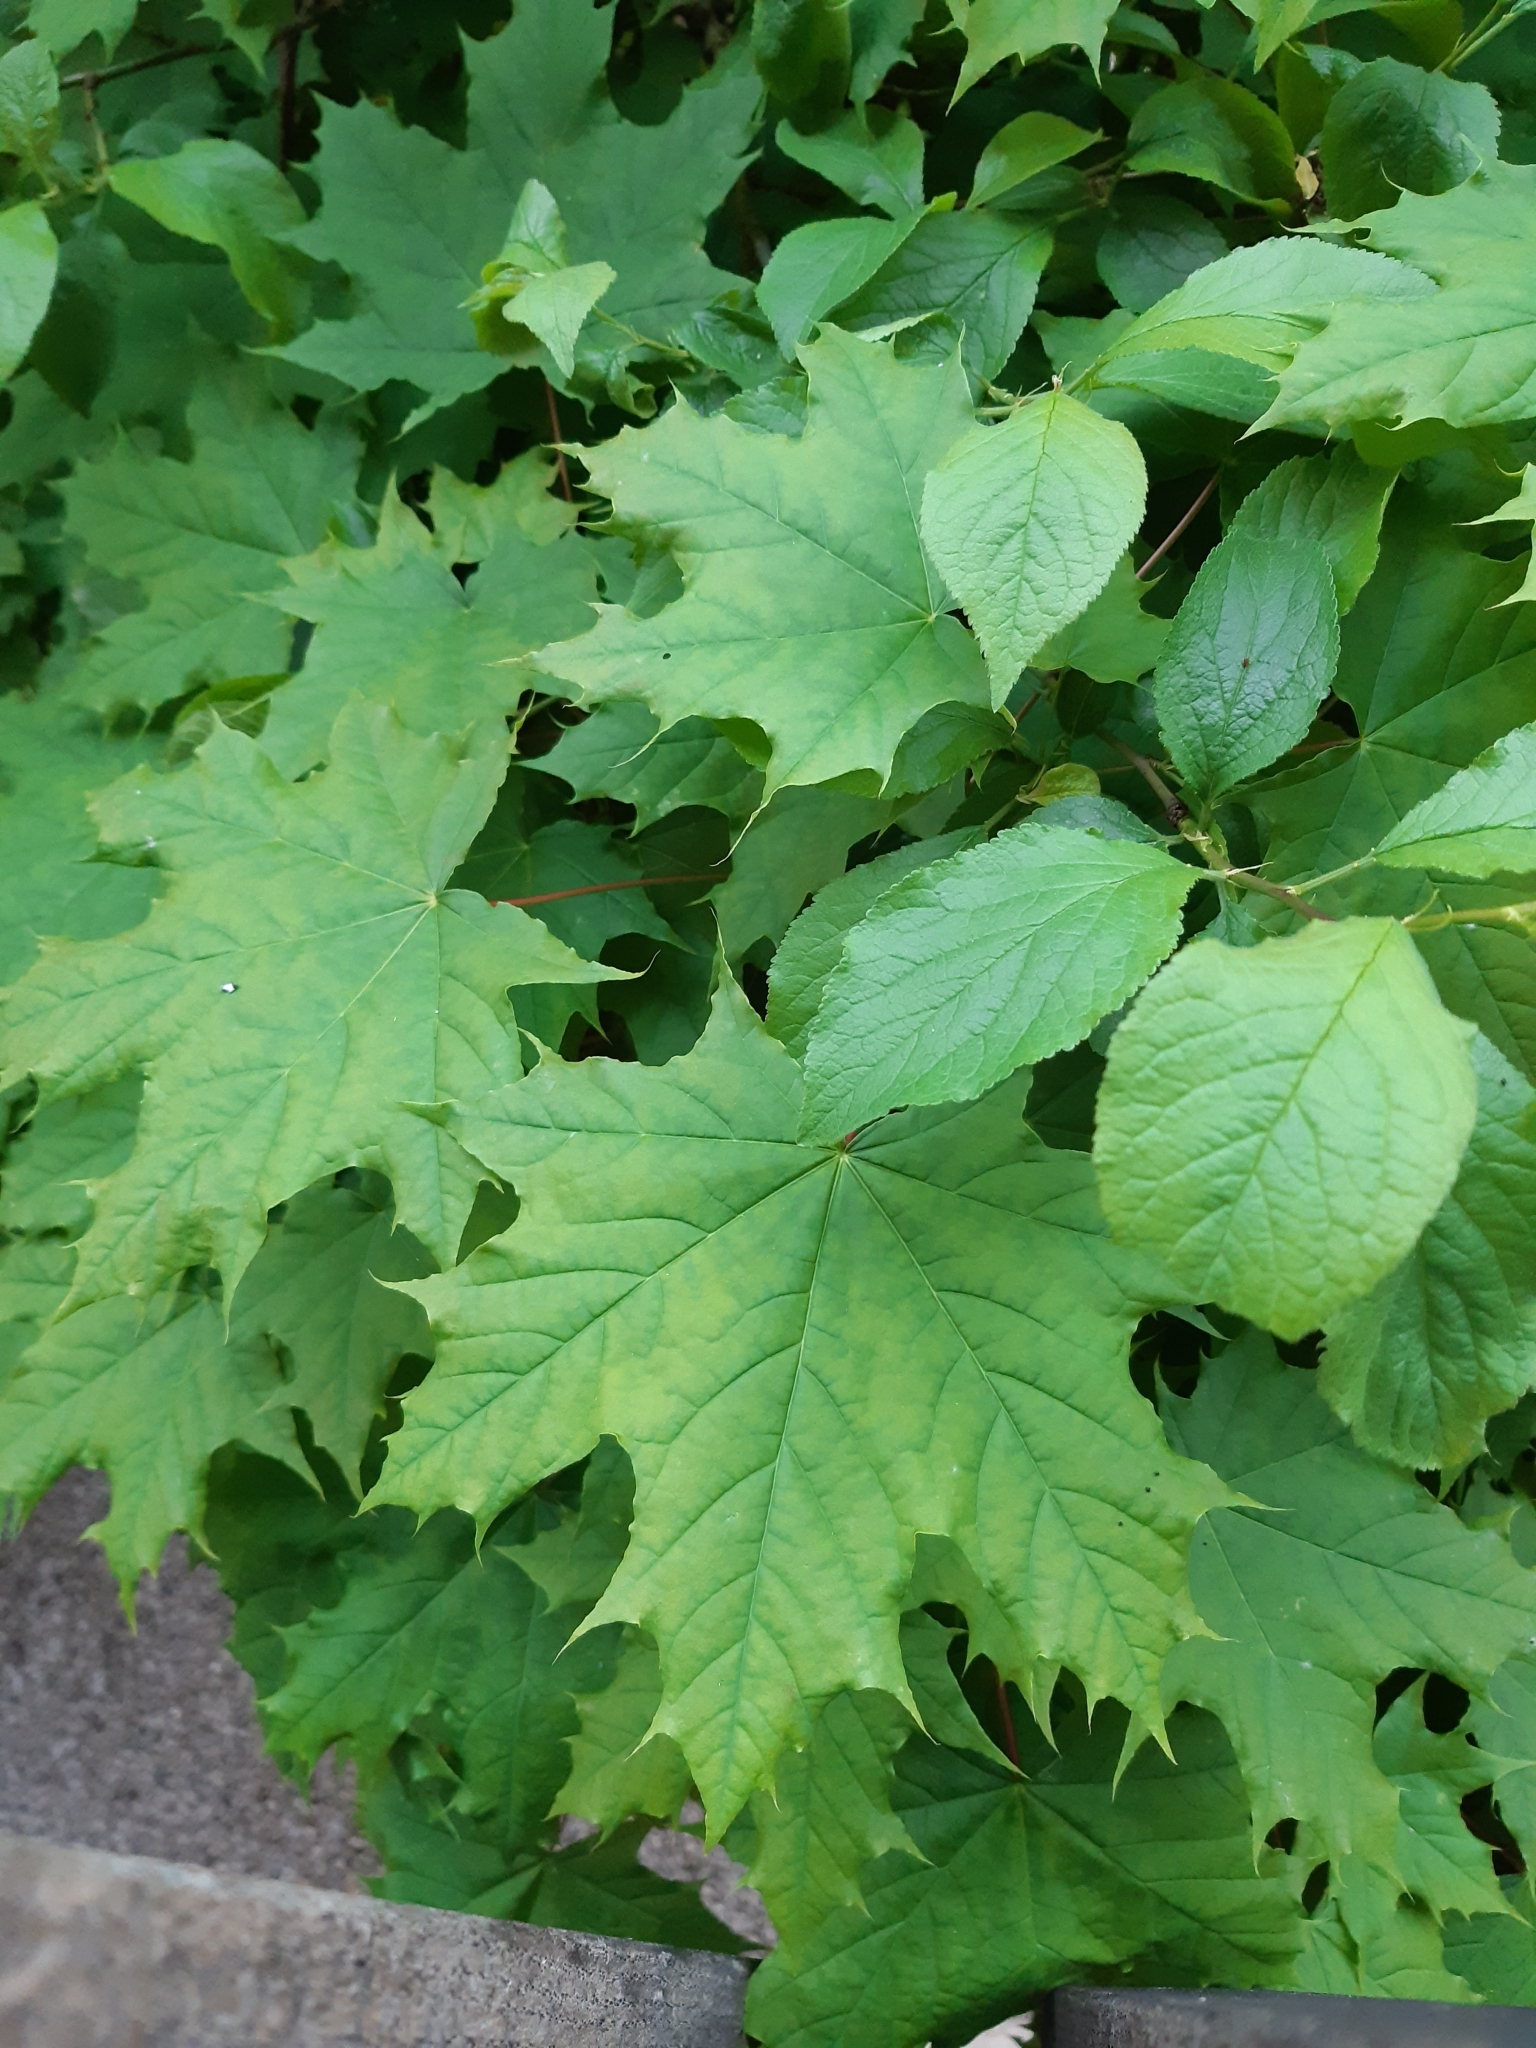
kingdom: Plantae
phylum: Tracheophyta
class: Magnoliopsida
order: Sapindales
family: Sapindaceae
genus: Acer
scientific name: Acer platanoides
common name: Norway maple
